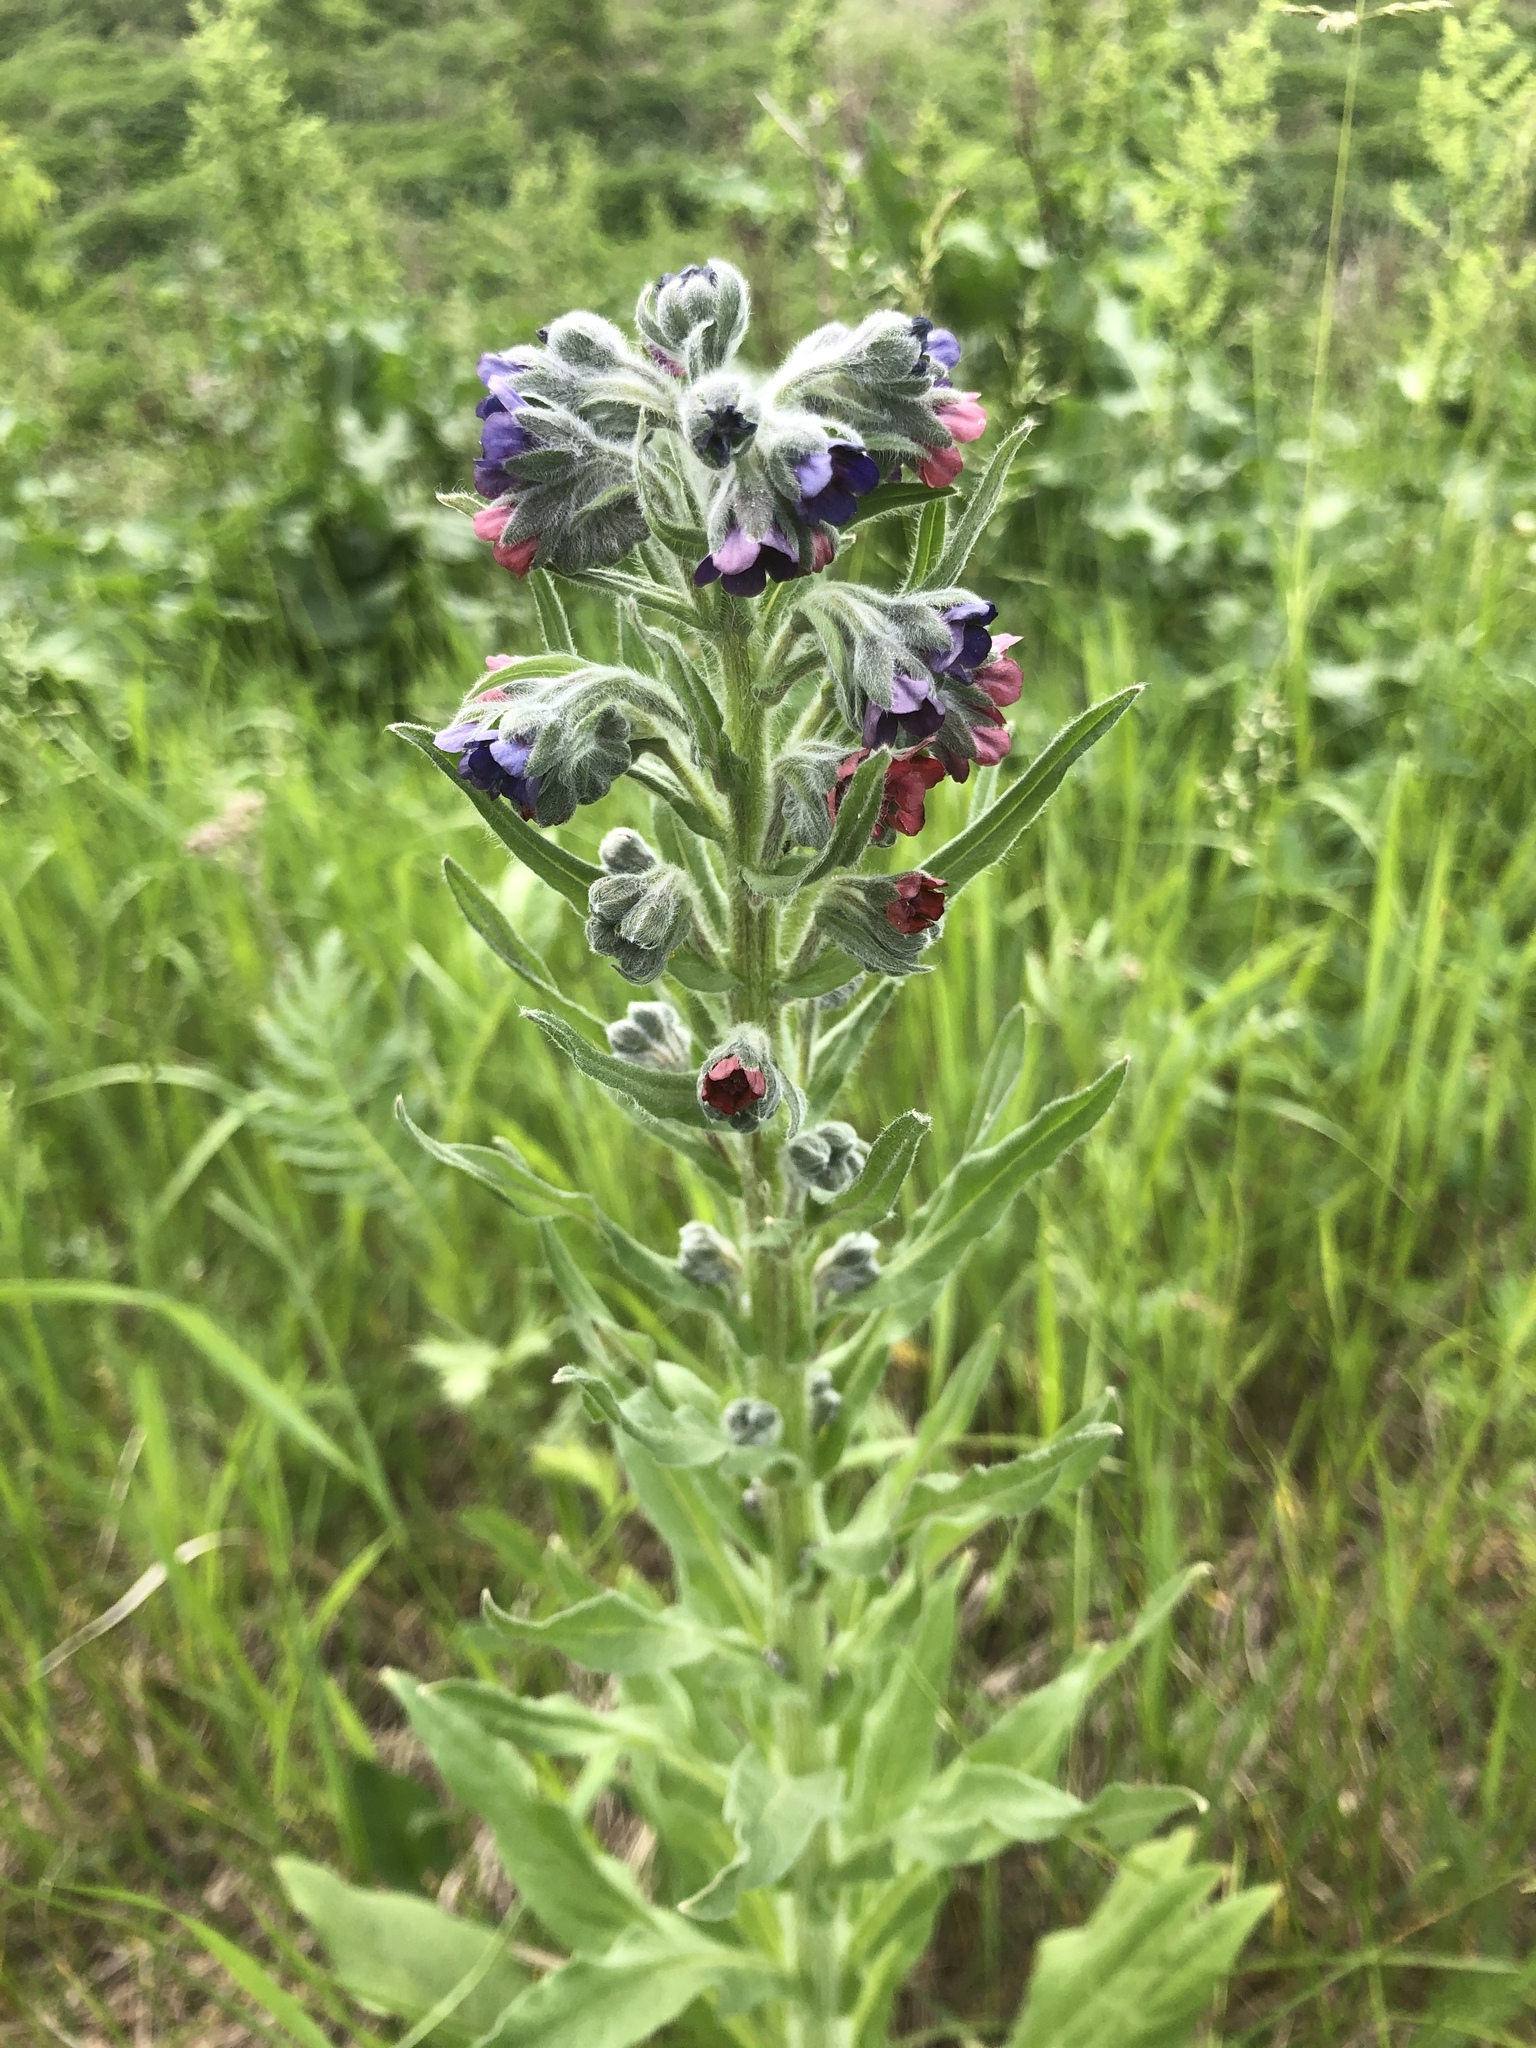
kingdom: Plantae
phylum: Tracheophyta
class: Magnoliopsida
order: Boraginales
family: Boraginaceae
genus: Cynoglossum
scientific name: Cynoglossum officinale
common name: Hound's-tongue
